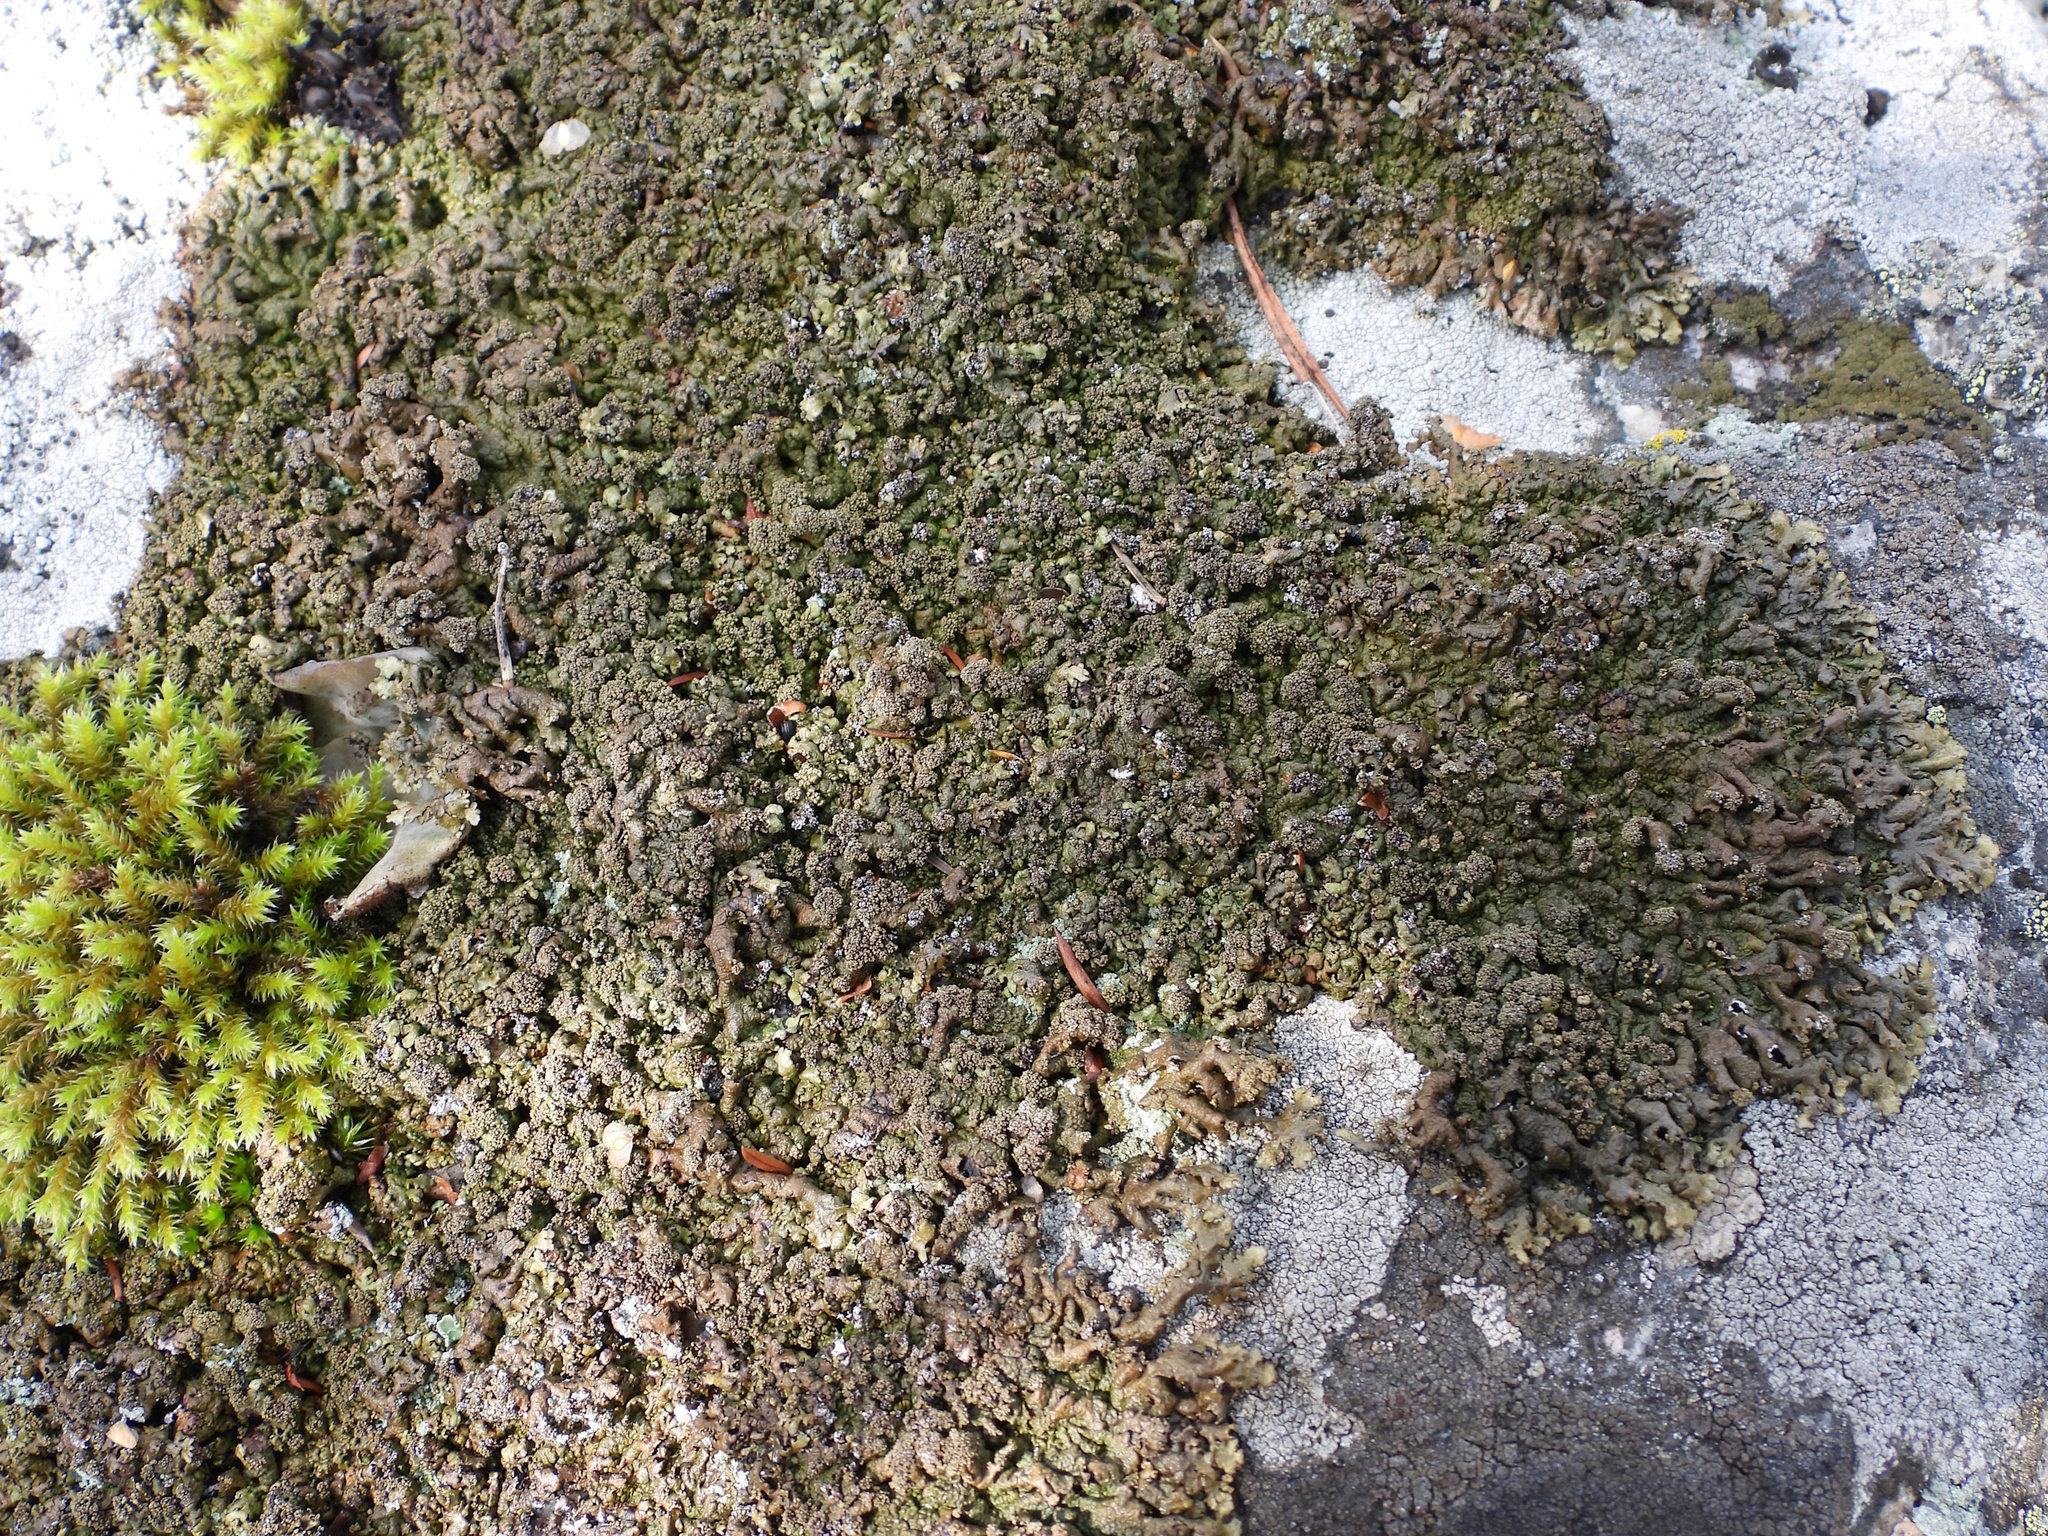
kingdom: Fungi
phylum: Ascomycota
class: Lecanoromycetes
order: Lecanorales
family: Parmeliaceae
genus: Xanthoparmelia
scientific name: Xanthoparmelia loxodes
